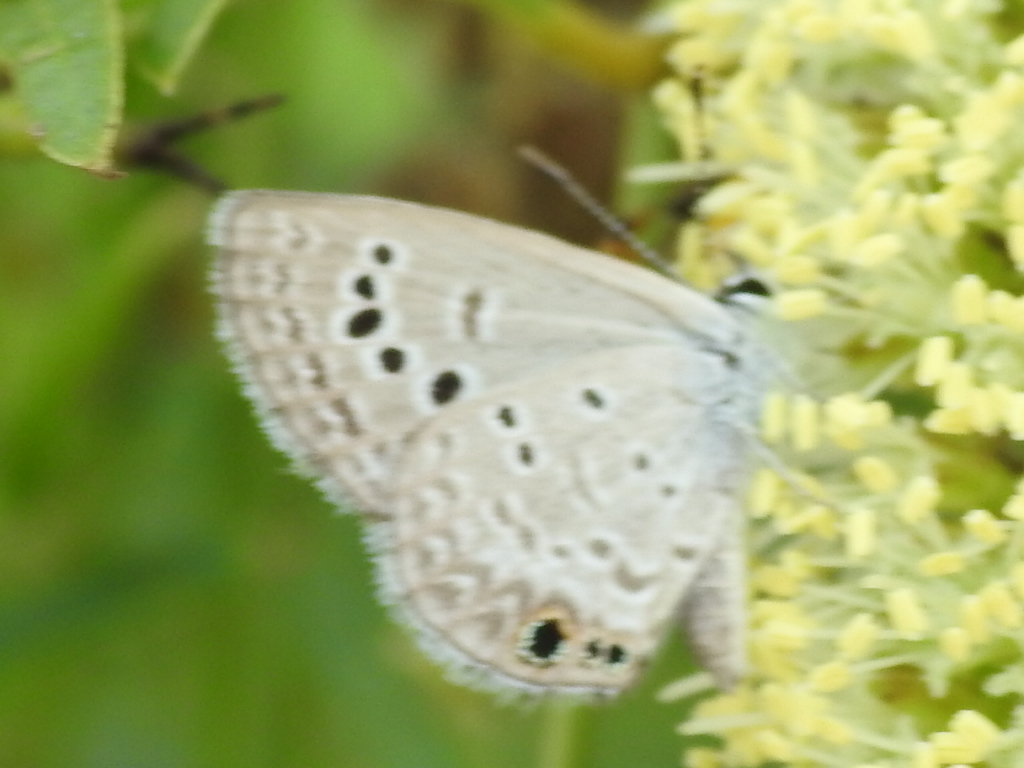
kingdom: Animalia
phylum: Arthropoda
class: Insecta
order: Lepidoptera
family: Lycaenidae
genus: Echinargus
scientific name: Echinargus isola
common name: Reakirt's blue
